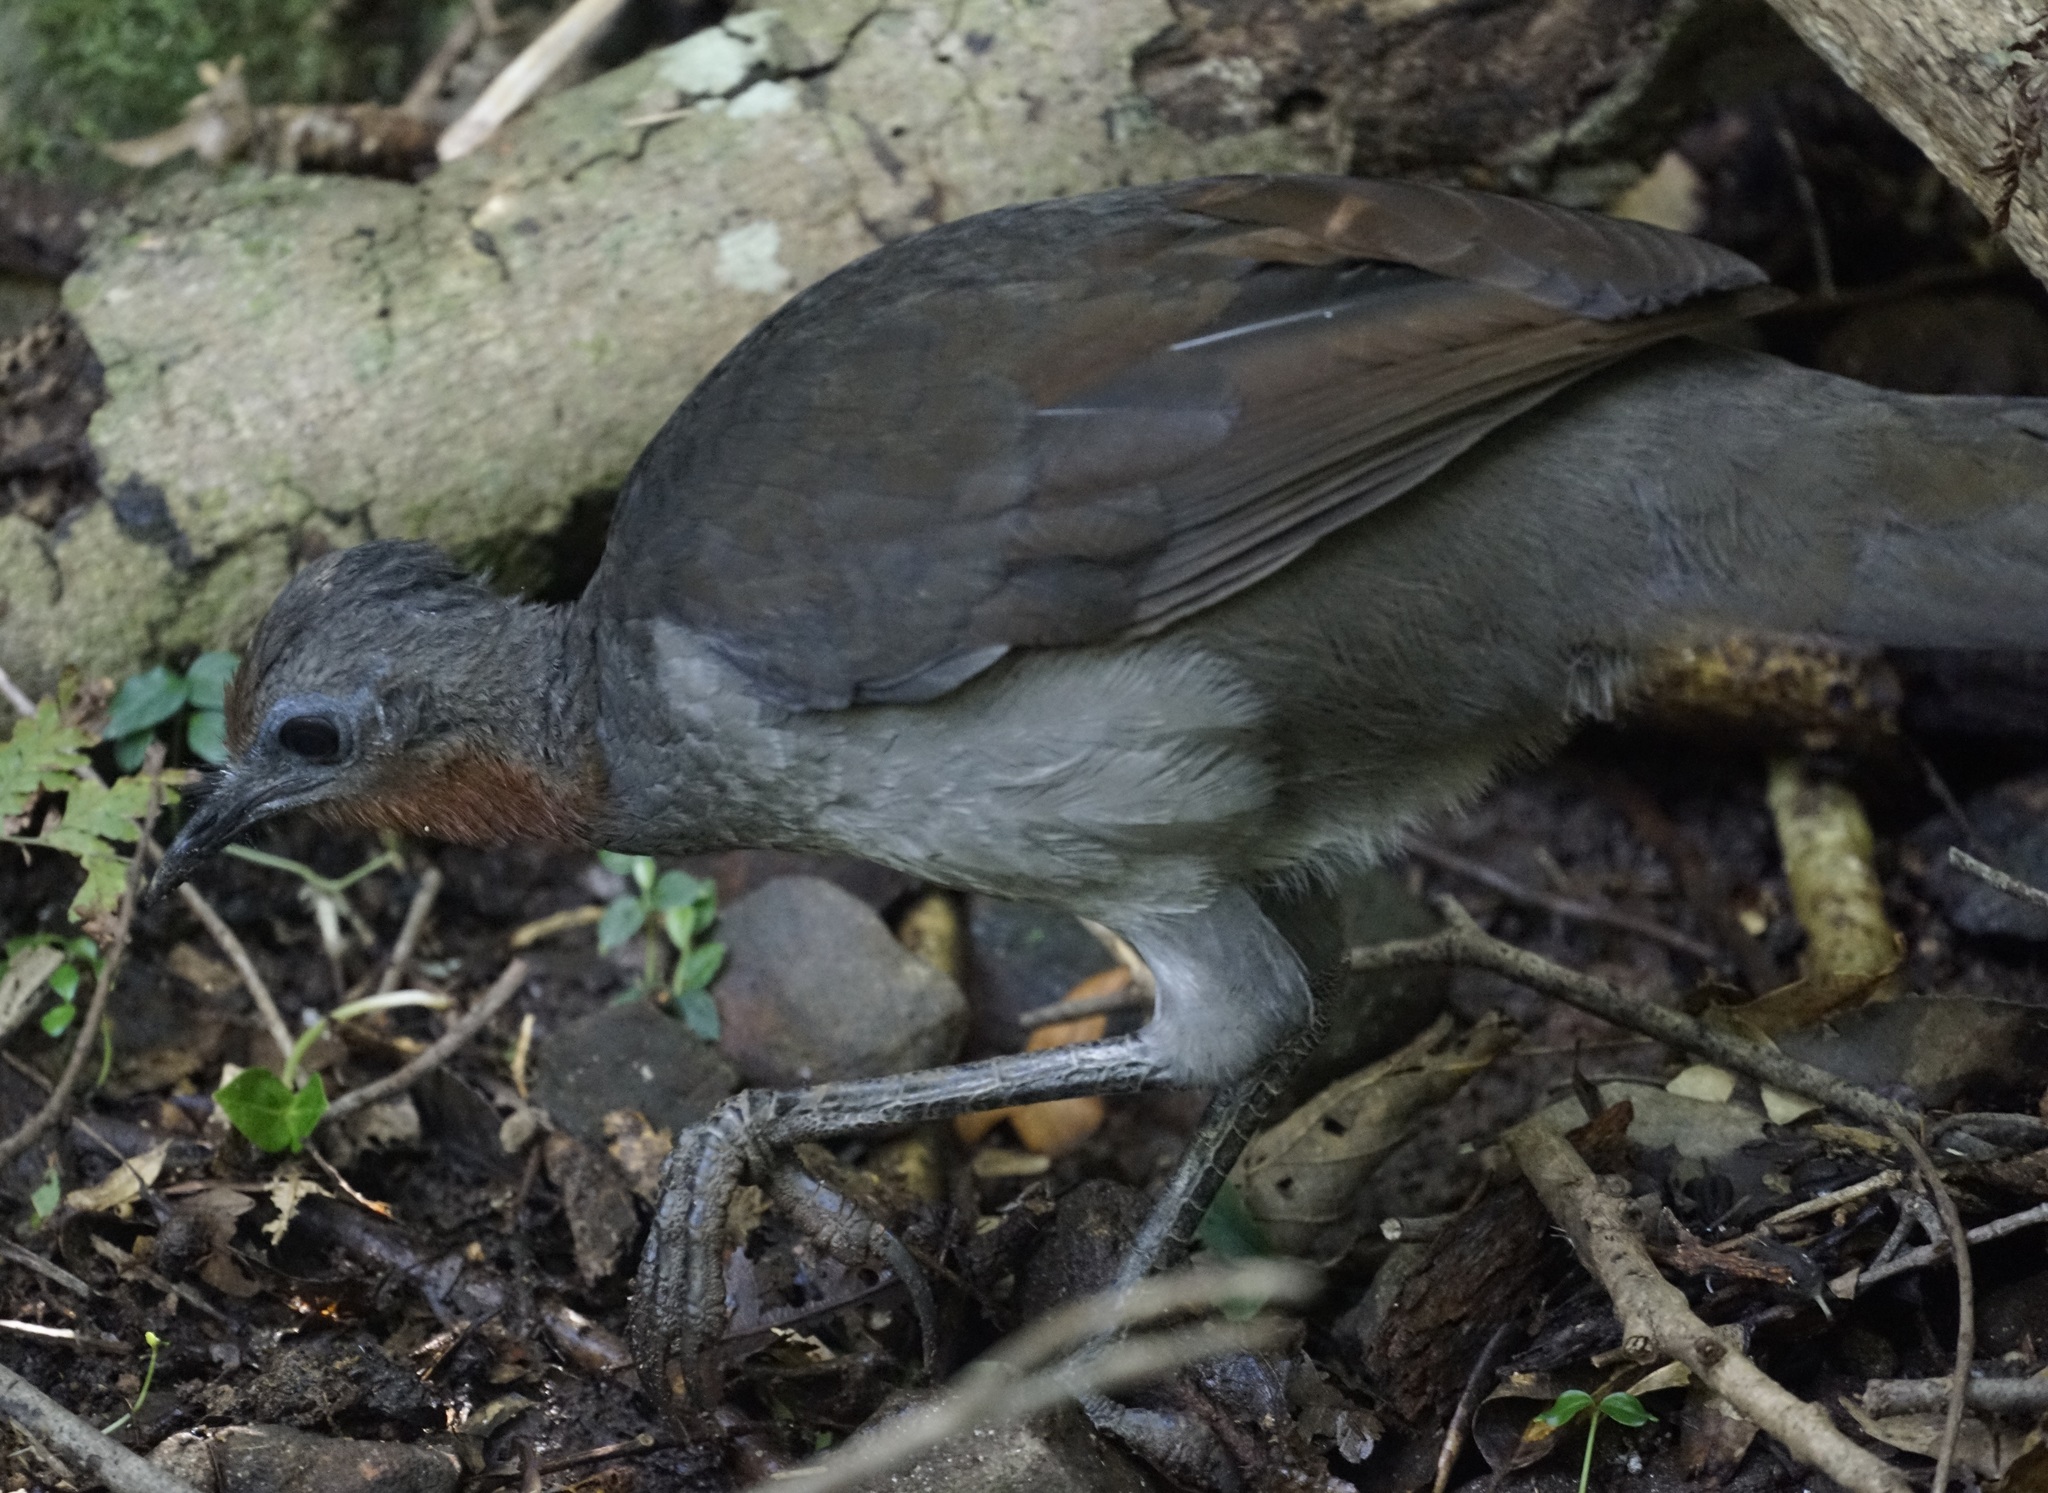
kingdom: Animalia
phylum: Chordata
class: Aves
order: Passeriformes
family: Menuridae
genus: Menura
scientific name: Menura novaehollandiae
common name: Superb lyrebird
